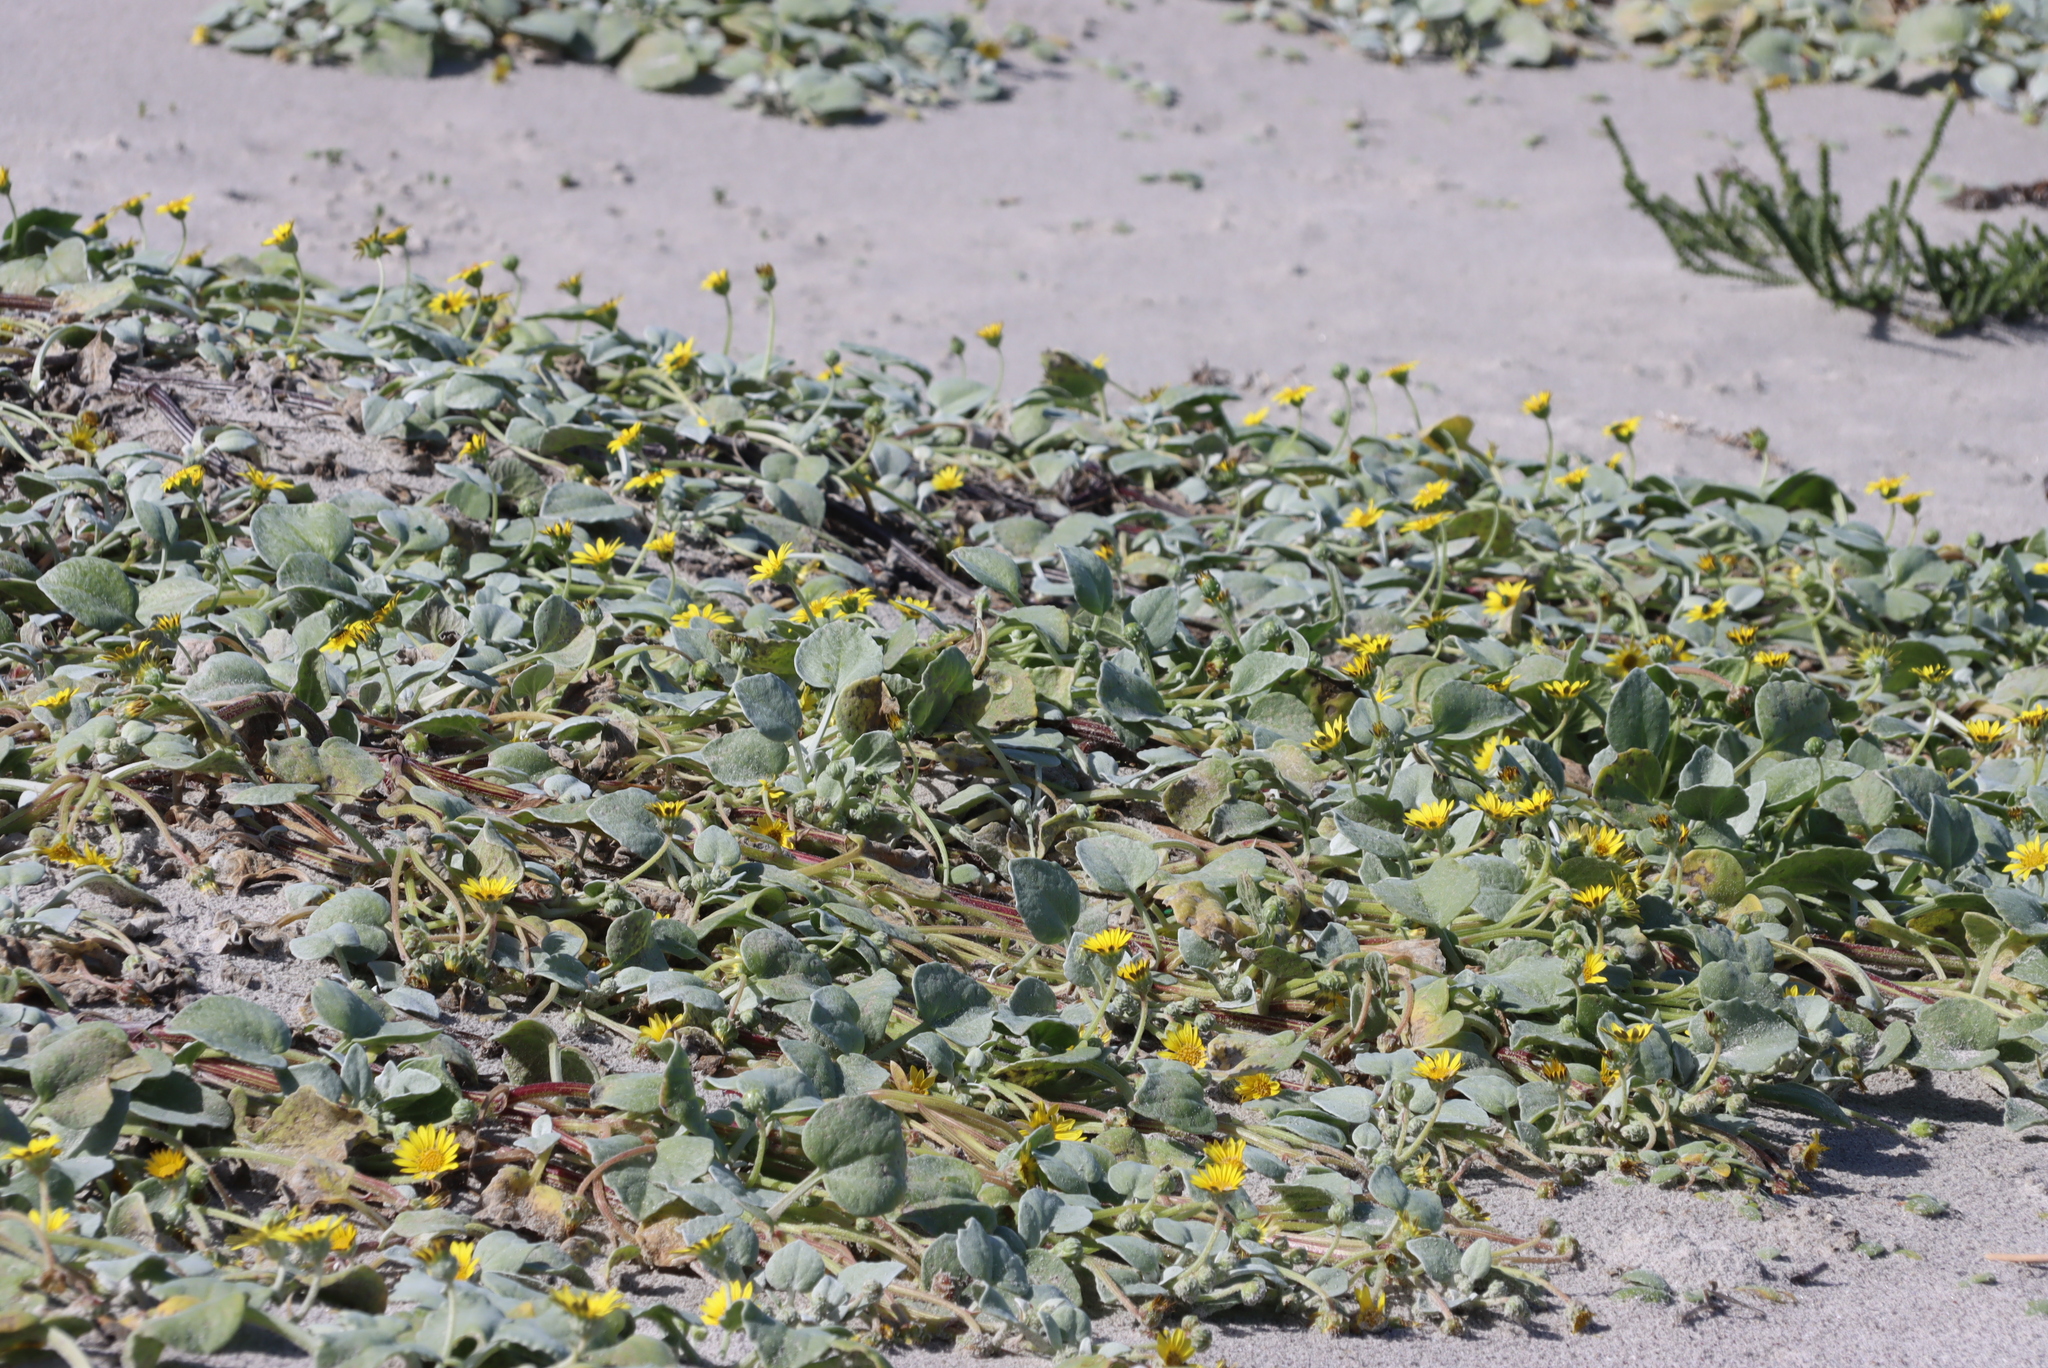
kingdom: Plantae
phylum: Tracheophyta
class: Magnoliopsida
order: Asterales
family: Asteraceae
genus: Arctotheca
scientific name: Arctotheca populifolia
